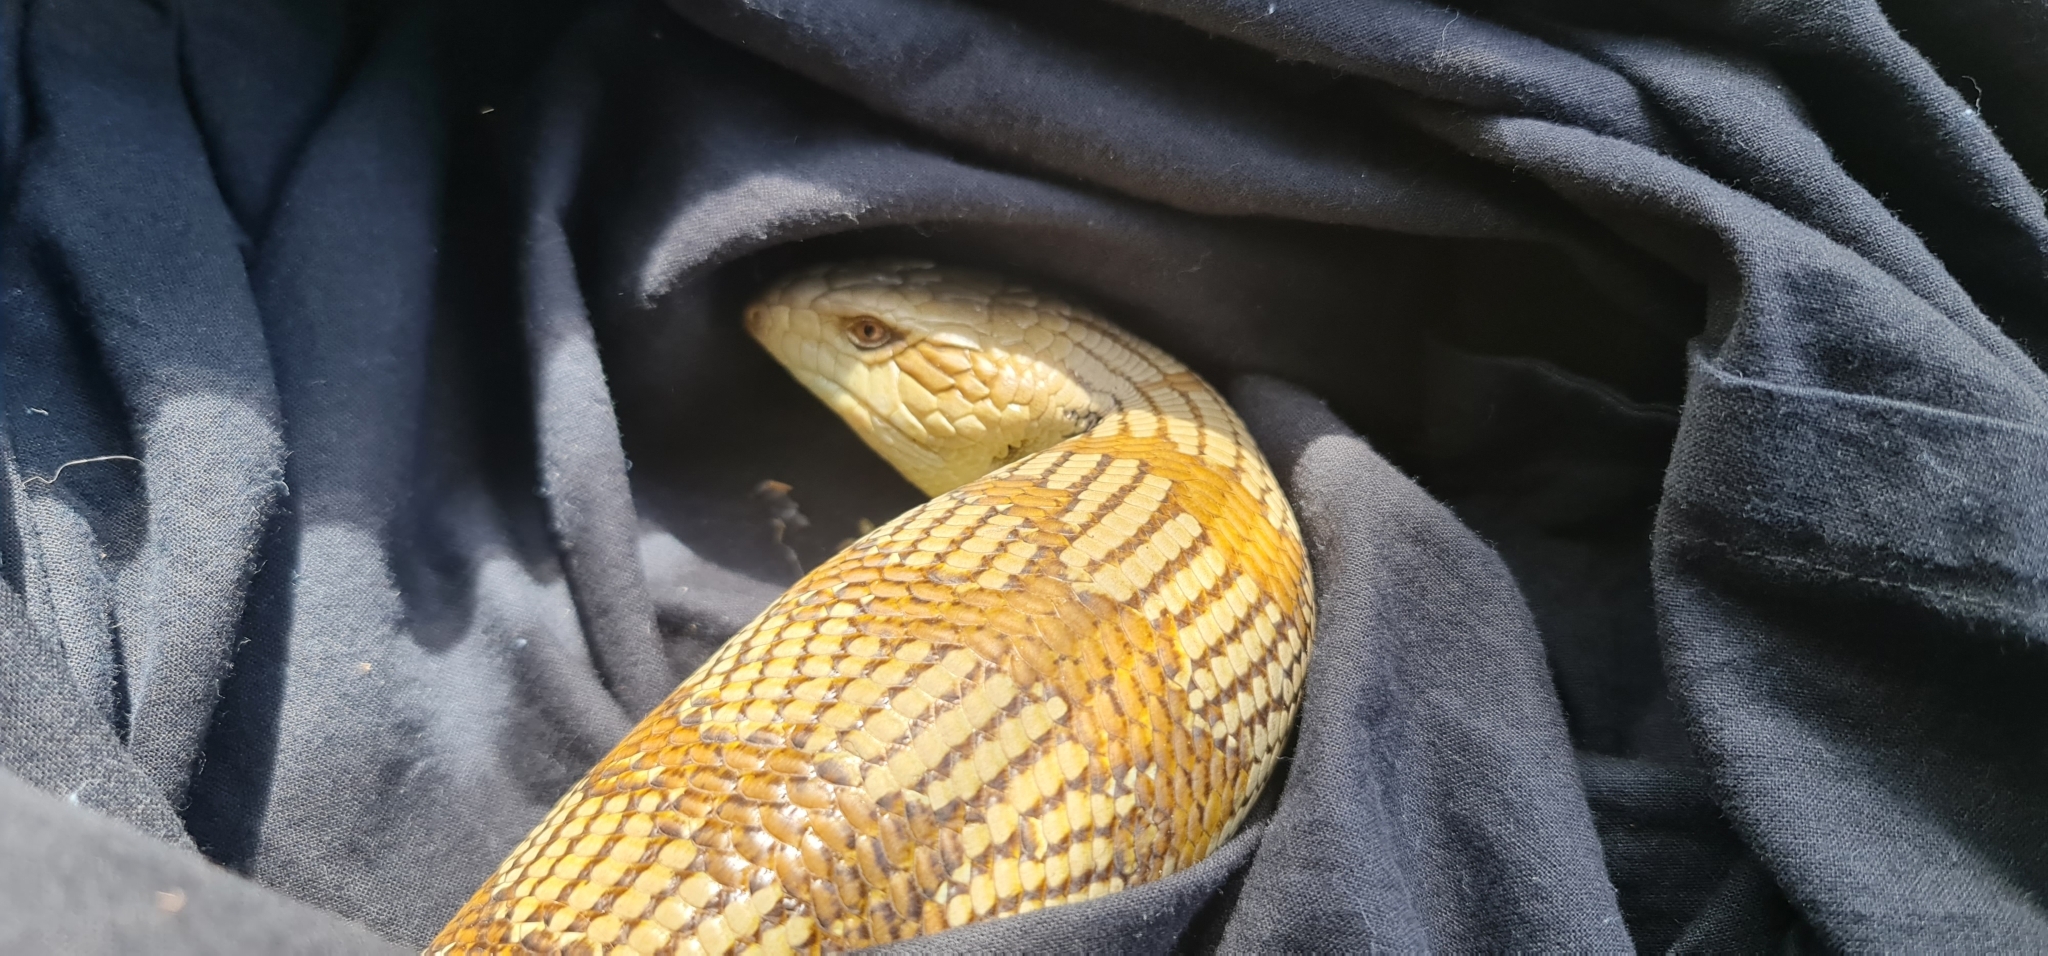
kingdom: Animalia
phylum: Chordata
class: Squamata
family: Scincidae
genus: Tiliqua
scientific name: Tiliqua scincoides
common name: Common bluetongue
